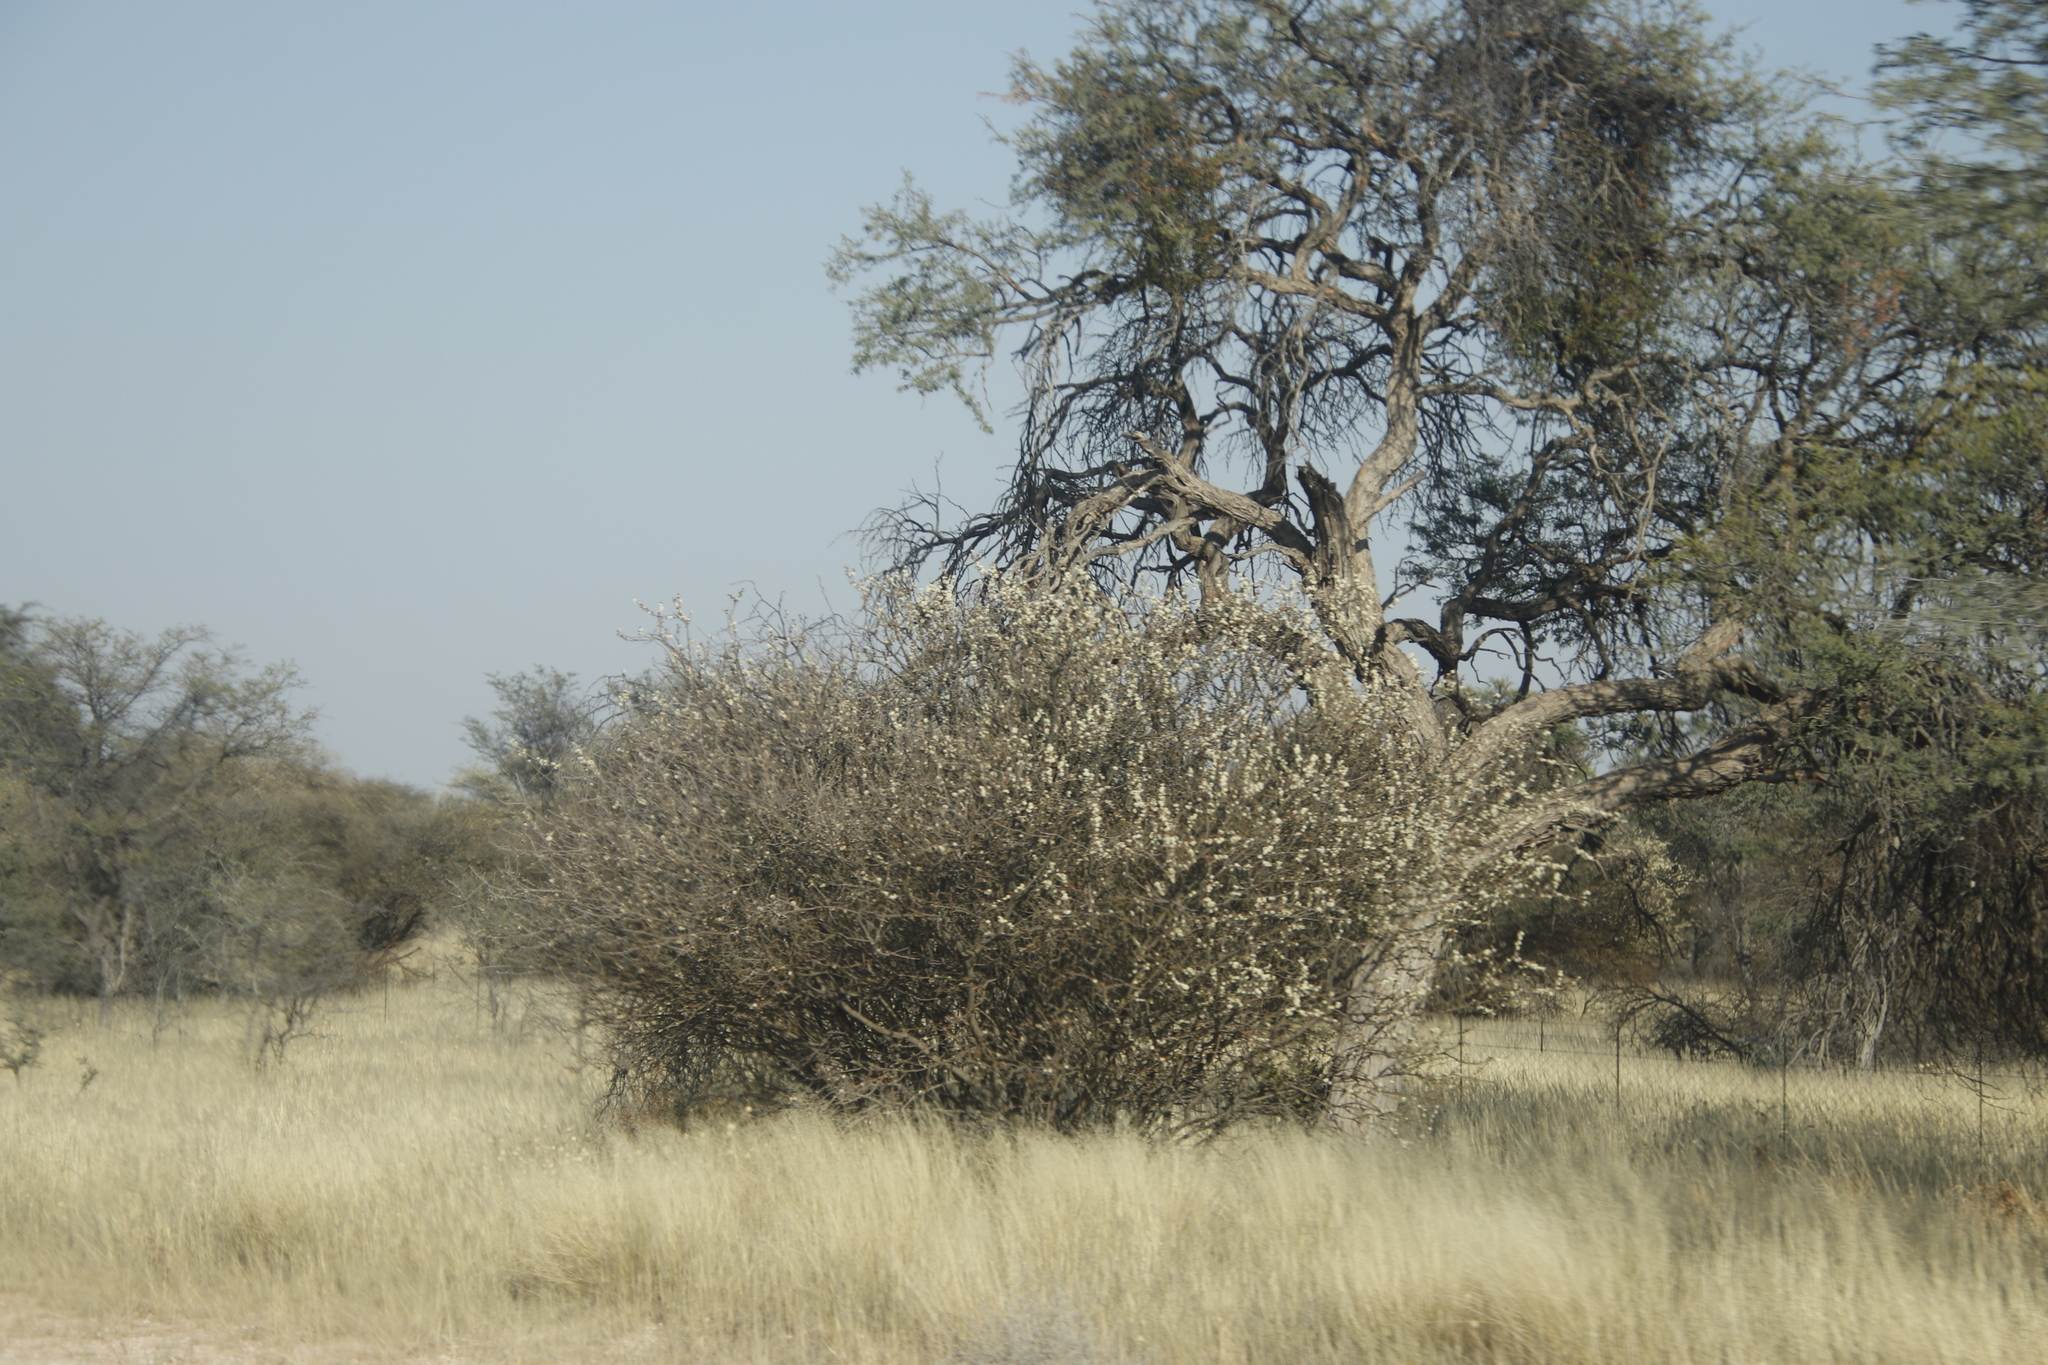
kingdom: Plantae
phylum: Tracheophyta
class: Magnoliopsida
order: Fabales
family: Fabaceae
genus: Senegalia
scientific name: Senegalia mellifera
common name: Hookthorn
